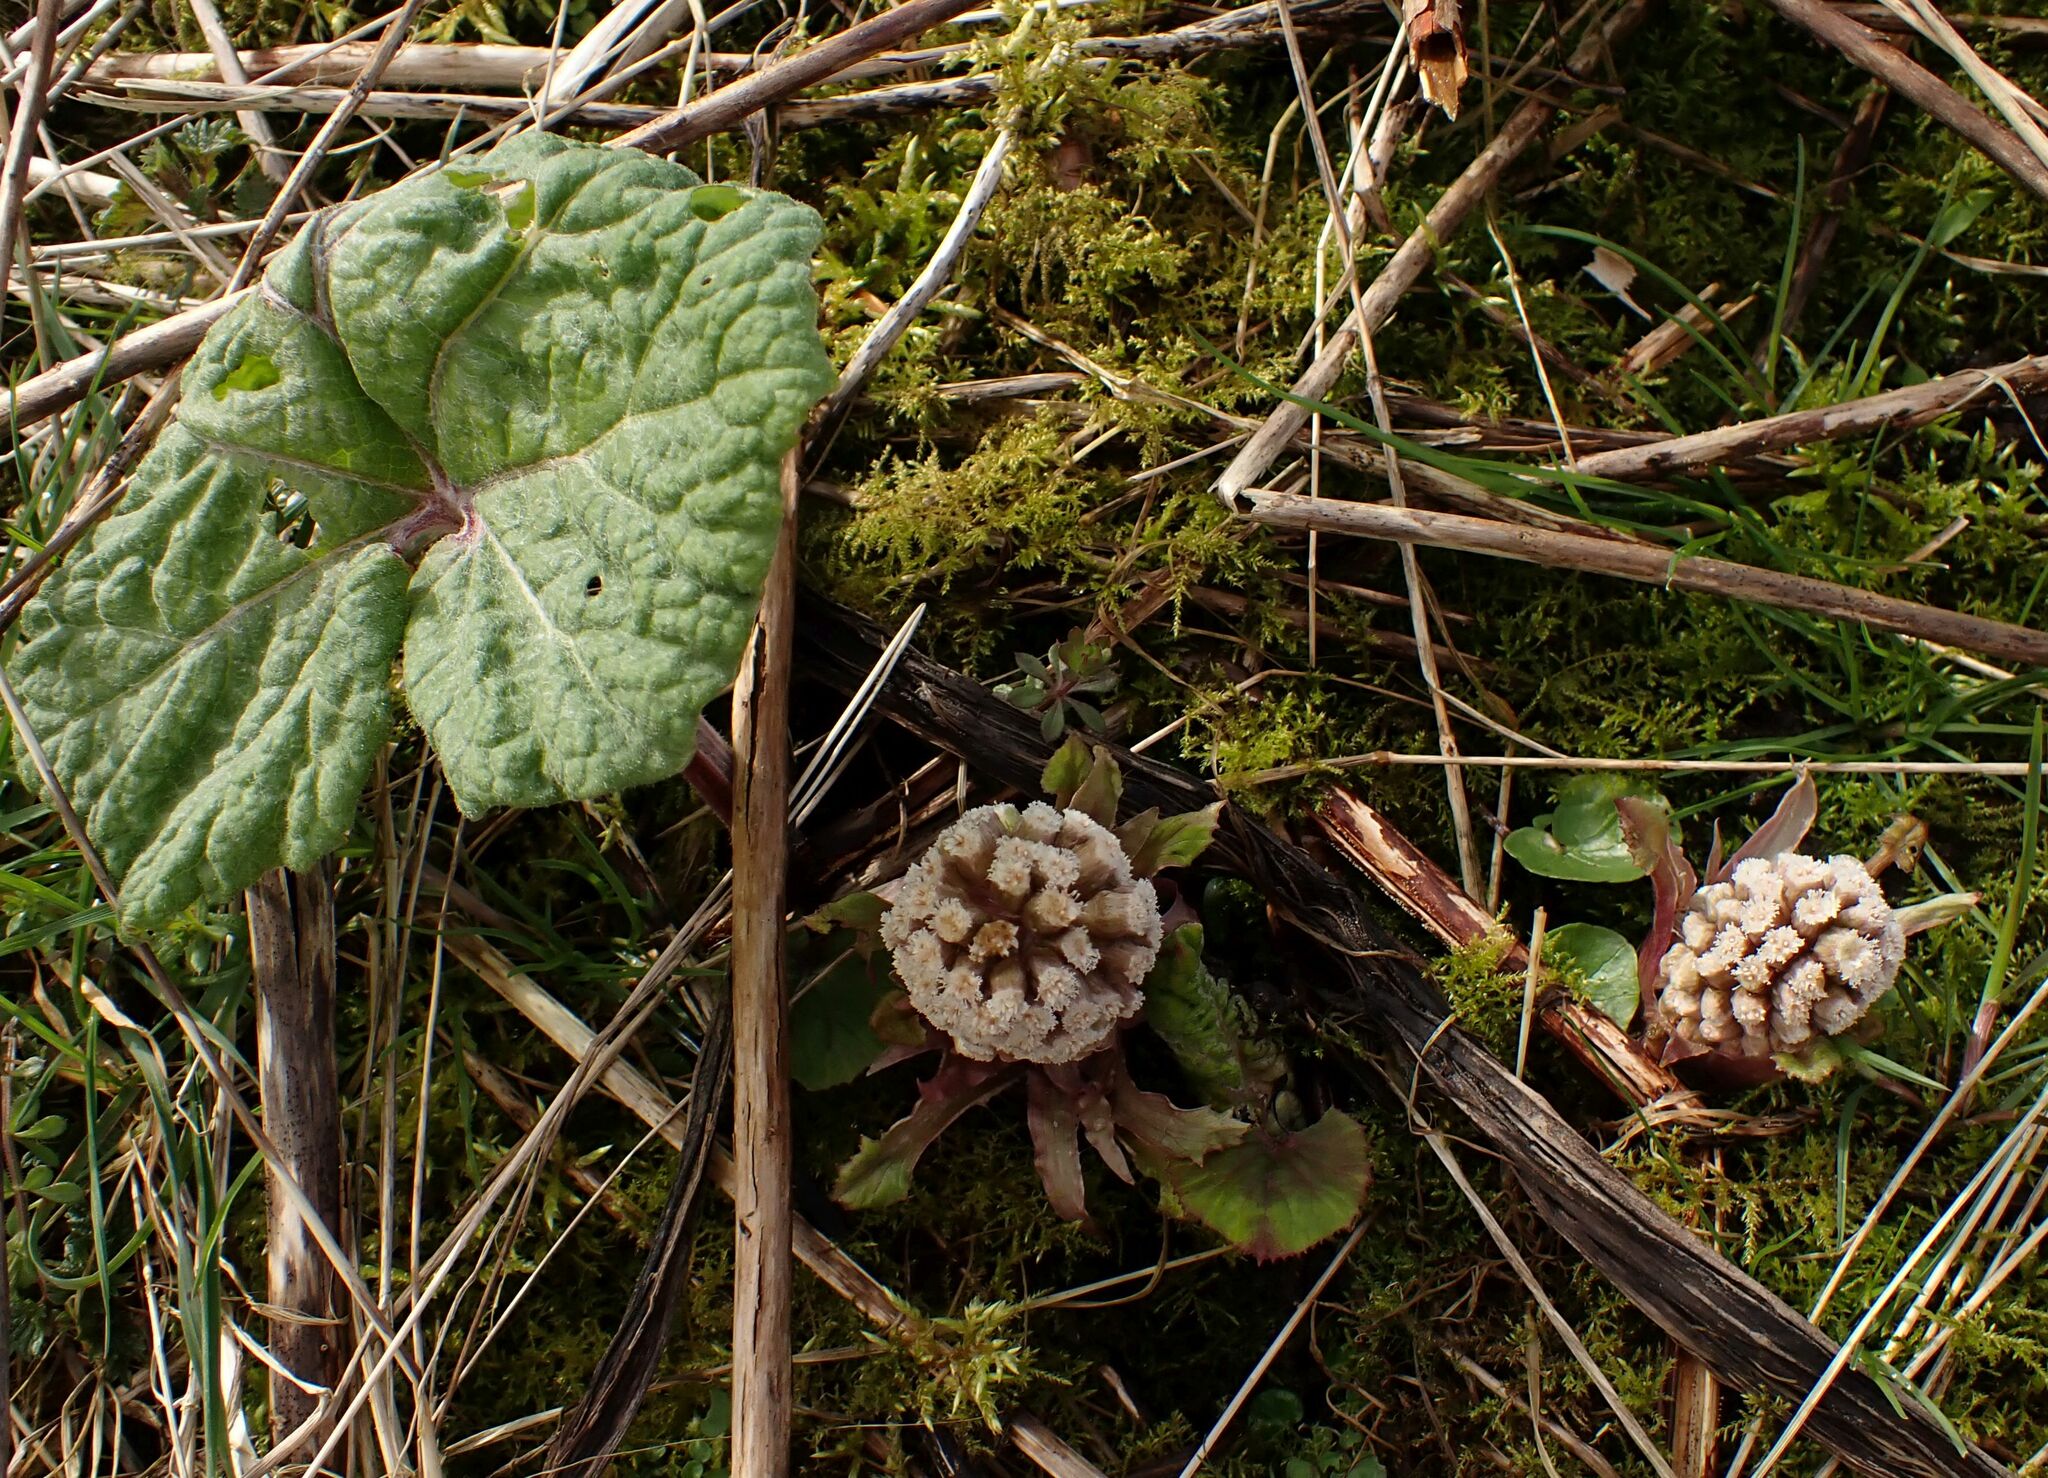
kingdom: Plantae
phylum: Tracheophyta
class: Magnoliopsida
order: Asterales
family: Asteraceae
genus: Petasites
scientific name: Petasites hybridus
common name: Butterbur
